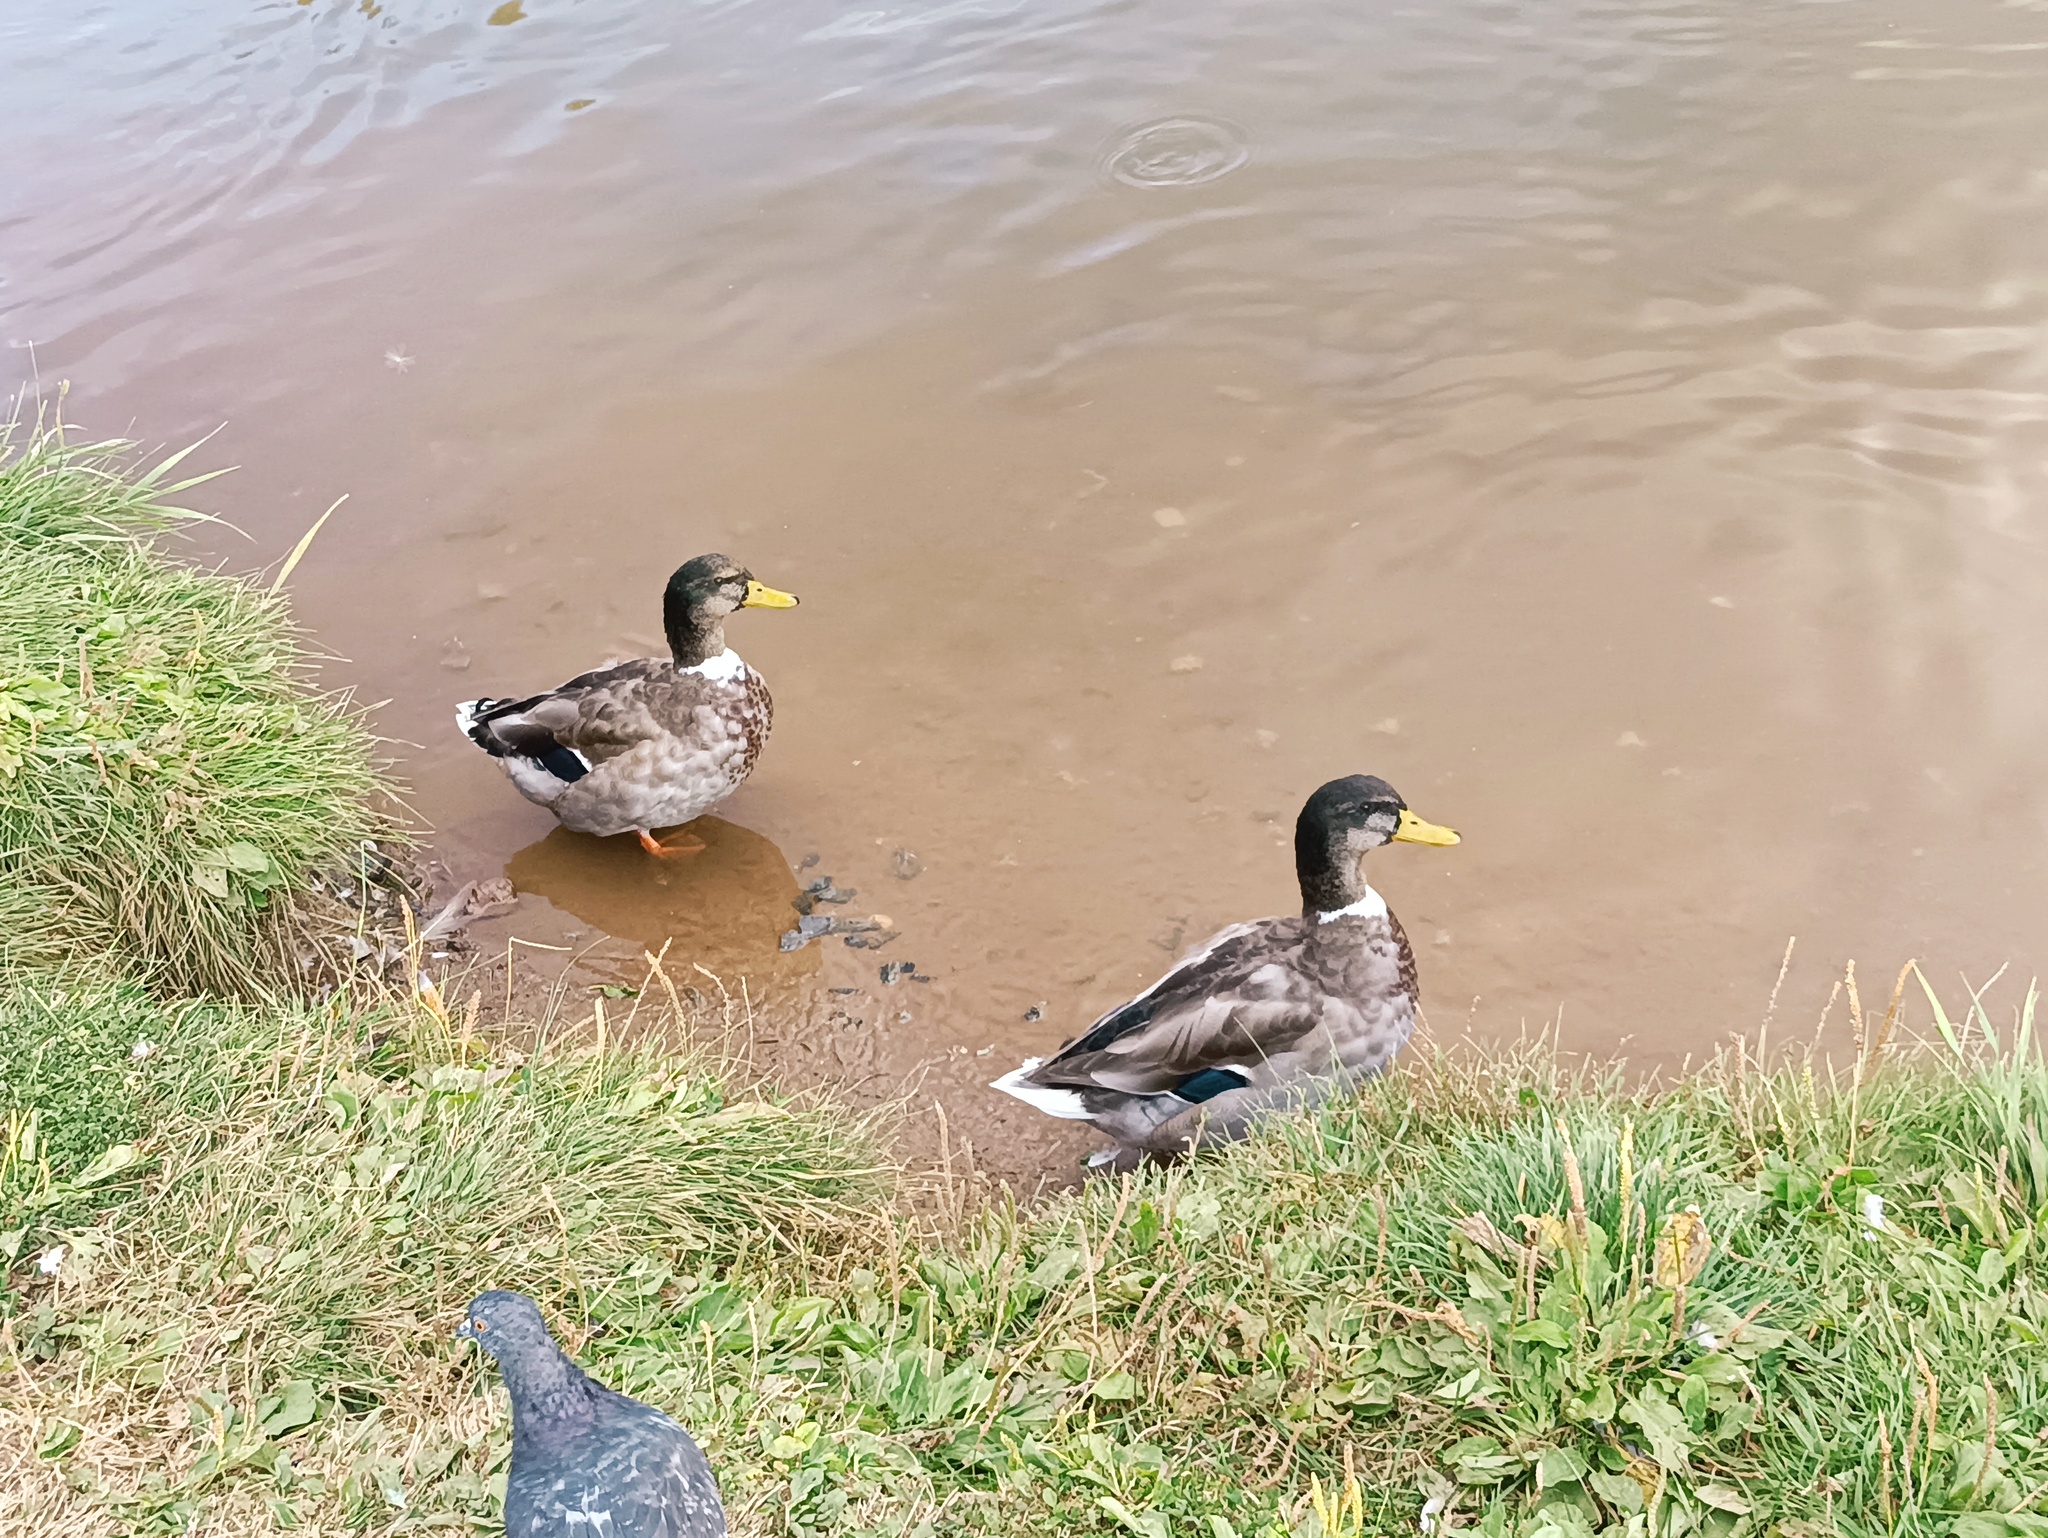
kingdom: Animalia
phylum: Chordata
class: Aves
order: Anseriformes
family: Anatidae
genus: Anas
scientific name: Anas platyrhynchos
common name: Mallard
